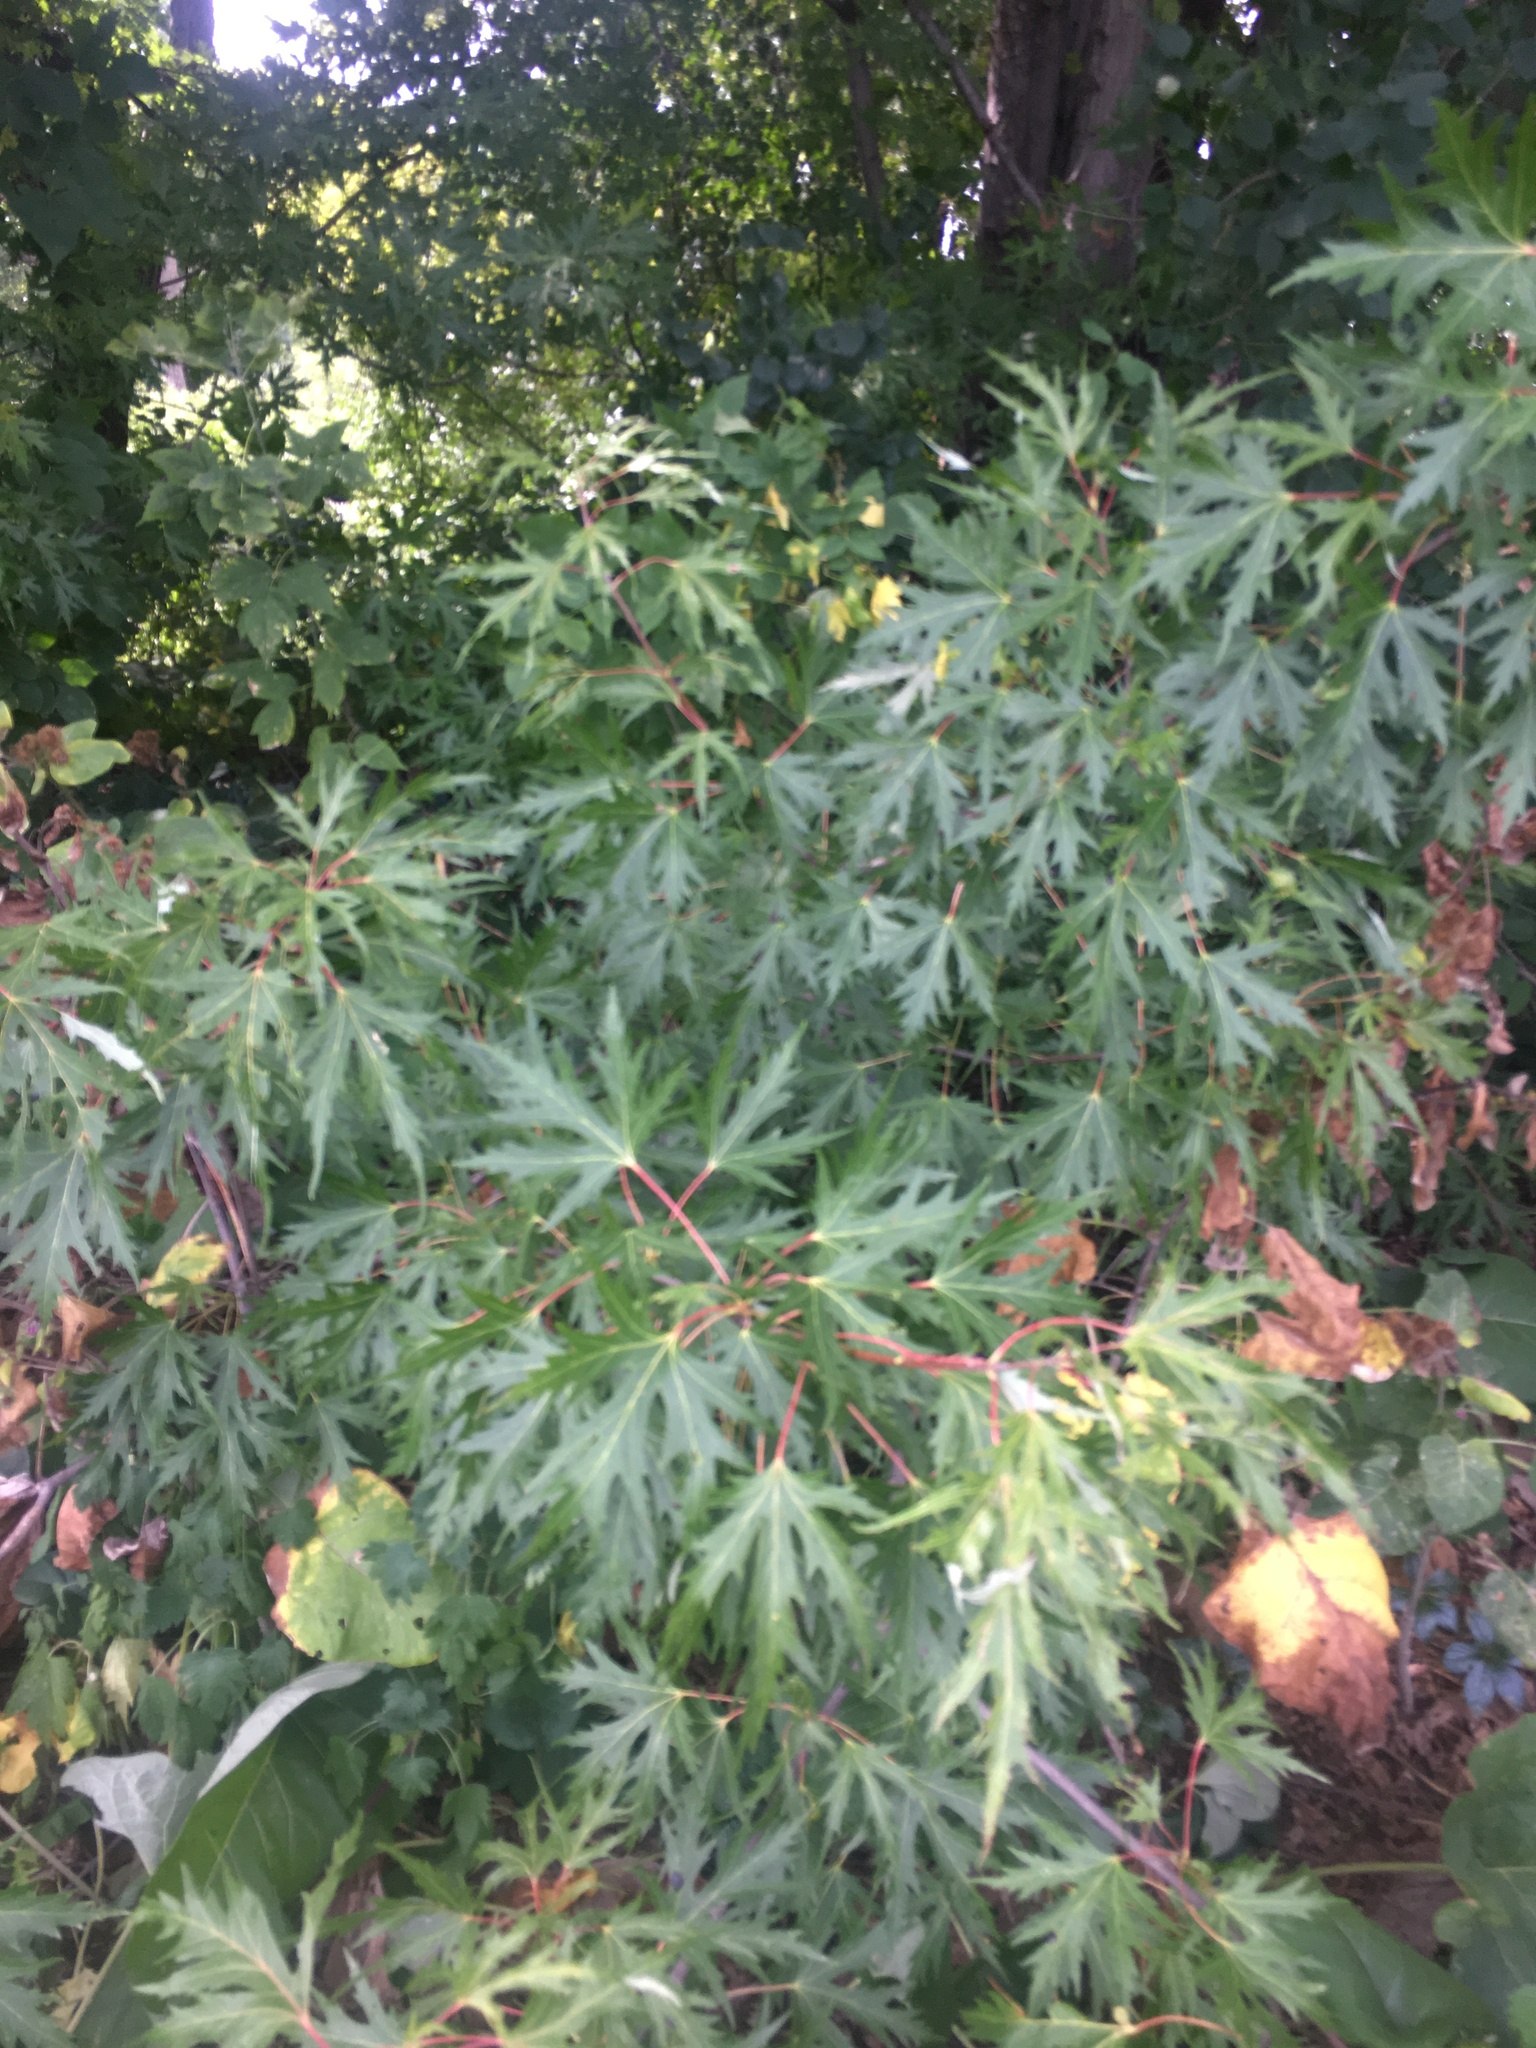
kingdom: Plantae
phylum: Tracheophyta
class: Magnoliopsida
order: Sapindales
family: Sapindaceae
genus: Acer
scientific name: Acer saccharinum
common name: Silver maple
